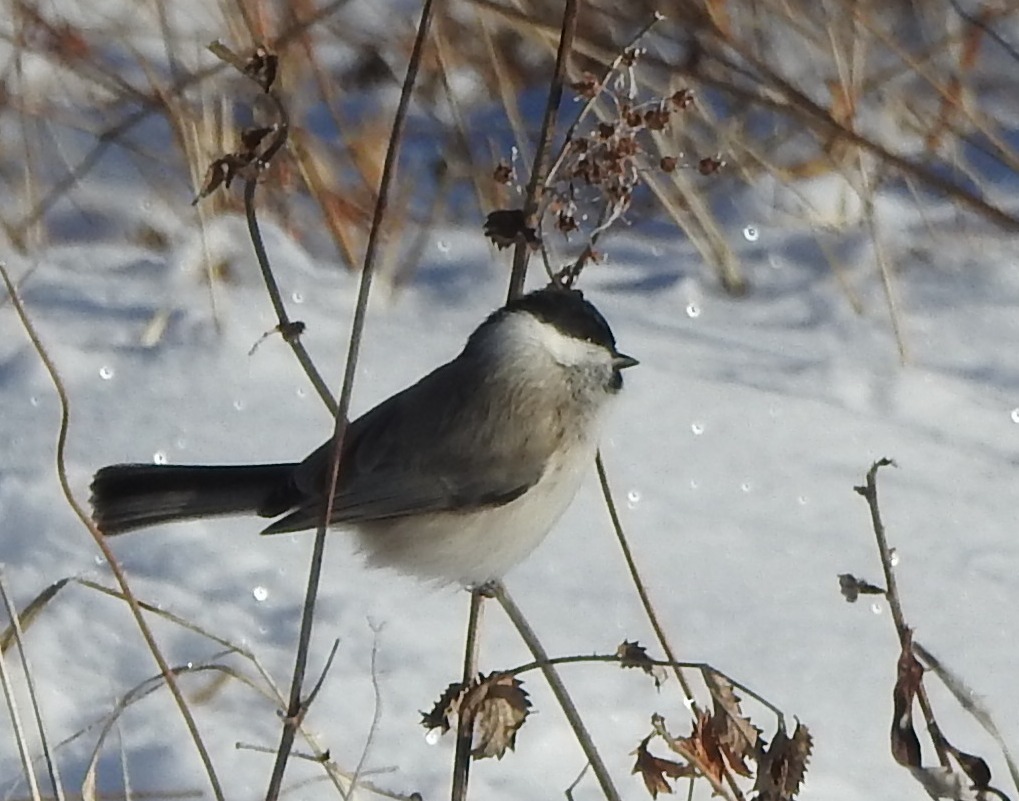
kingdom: Animalia
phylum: Chordata
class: Aves
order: Passeriformes
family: Paridae
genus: Poecile
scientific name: Poecile palustris
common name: Marsh tit
